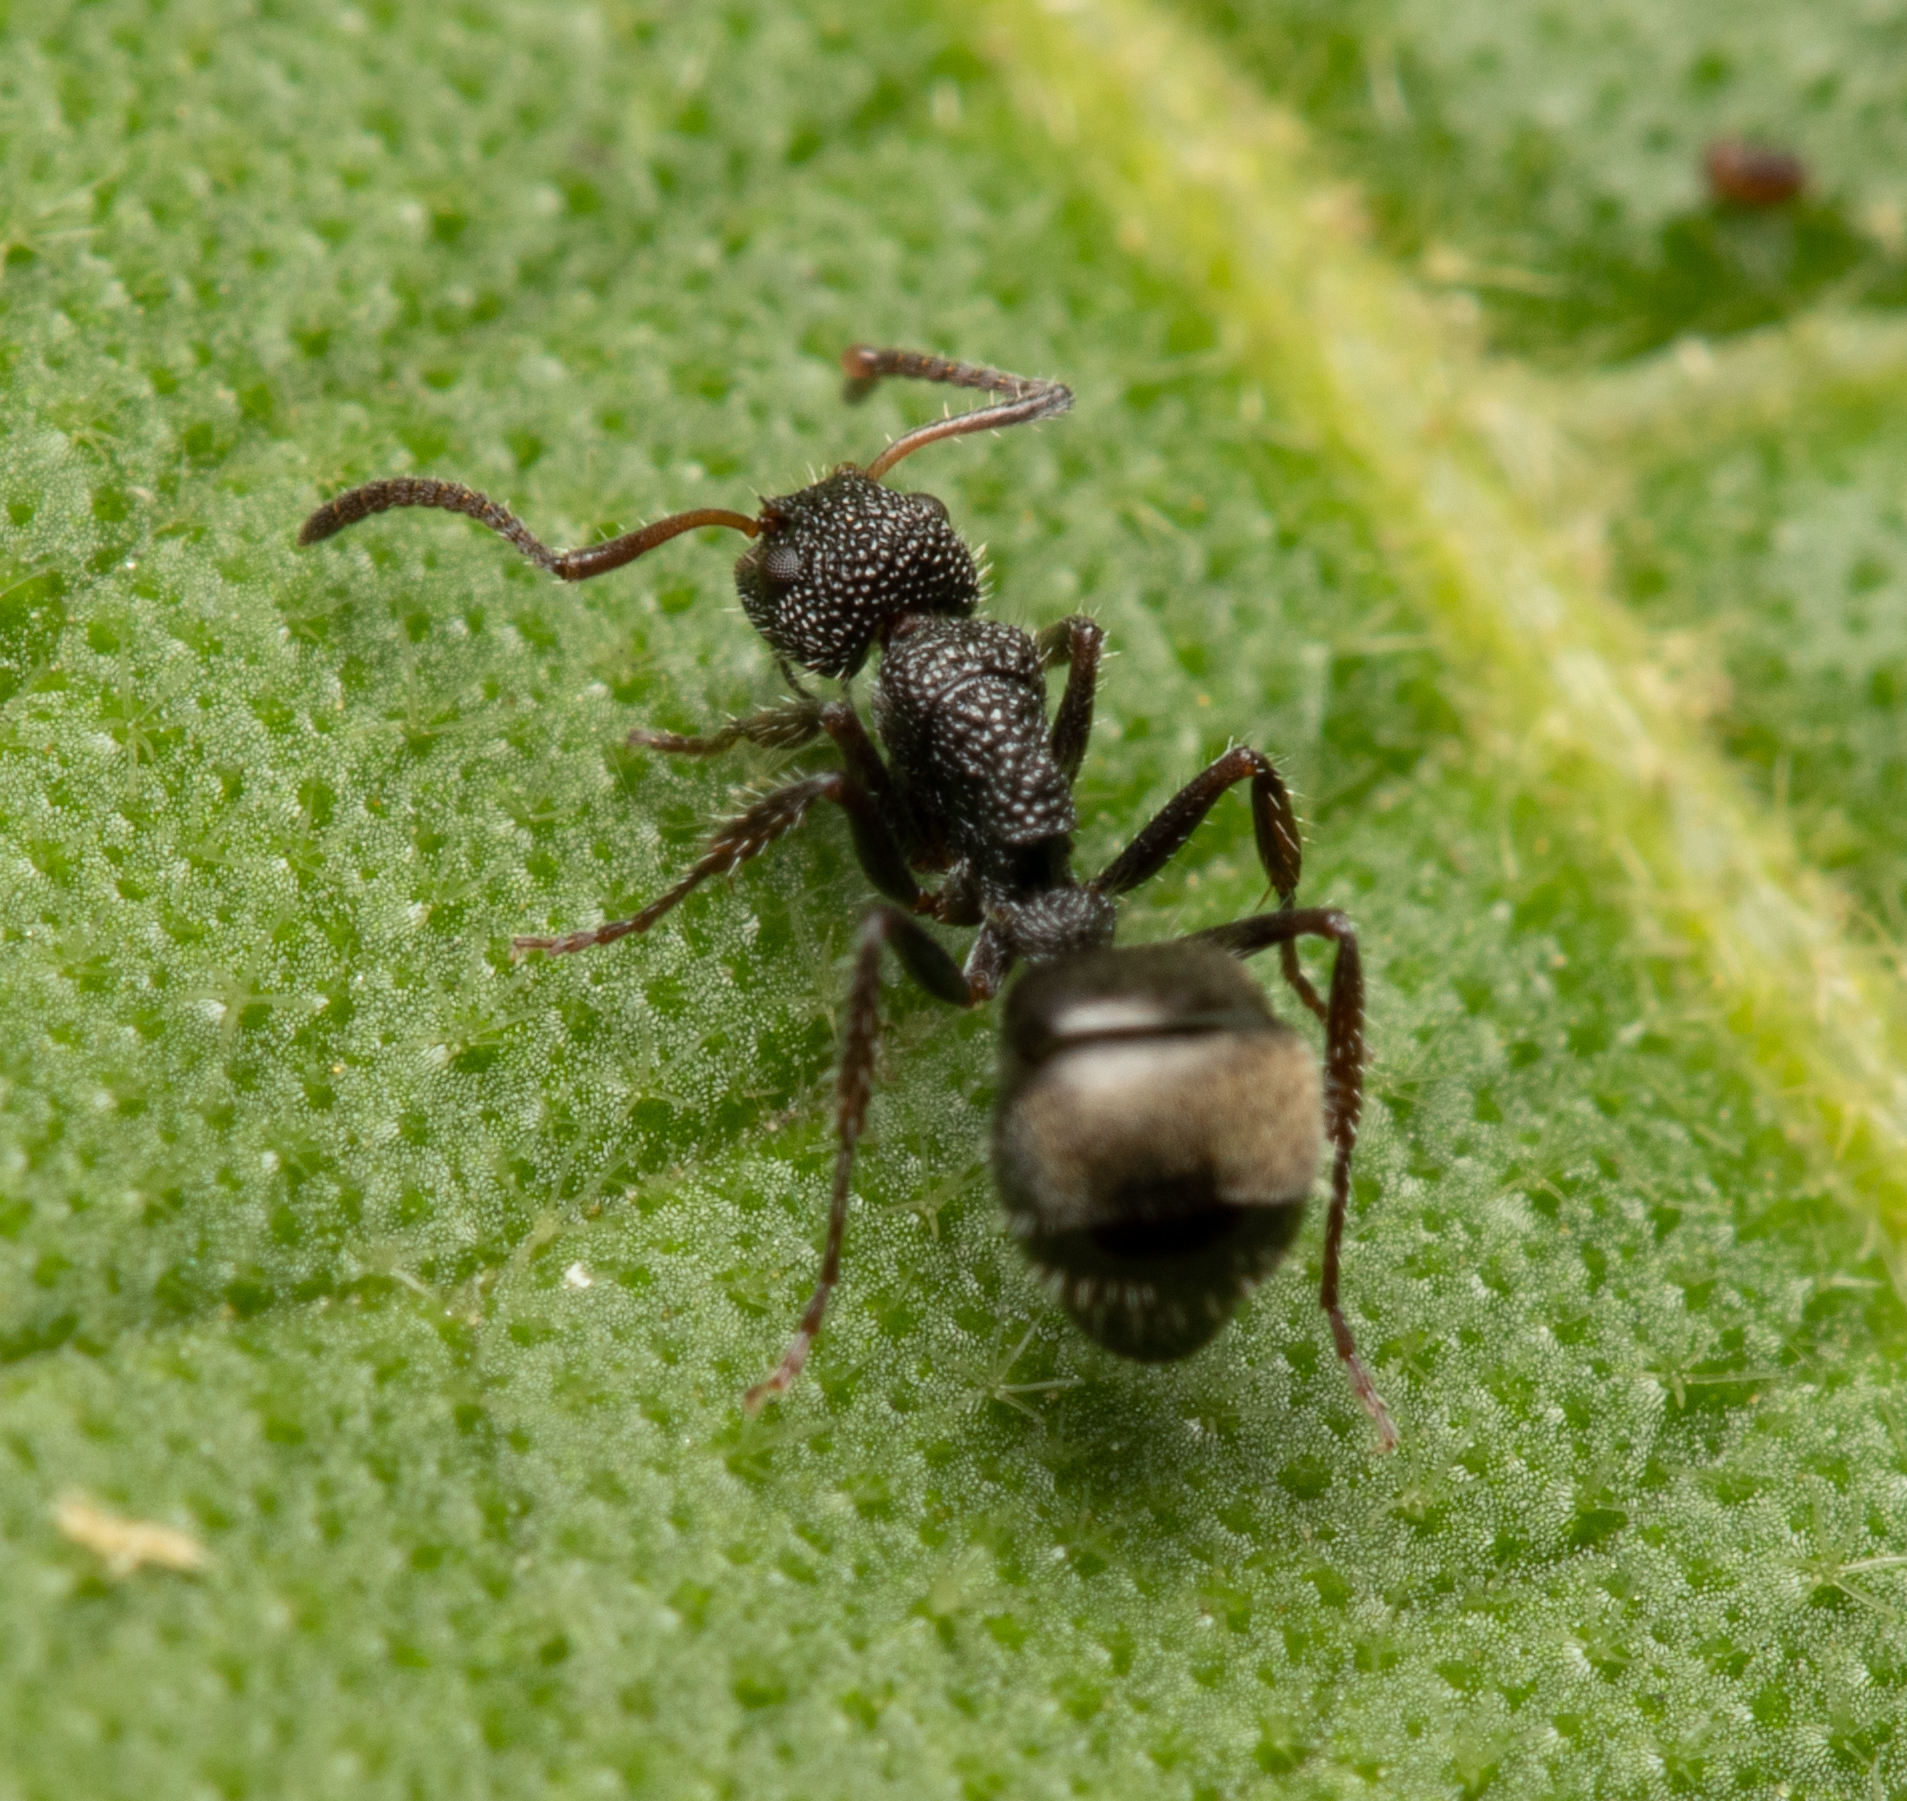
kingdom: Animalia
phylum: Arthropoda
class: Insecta
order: Hymenoptera
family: Formicidae
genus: Dolichoderus
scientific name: Dolichoderus scrobiculatus
